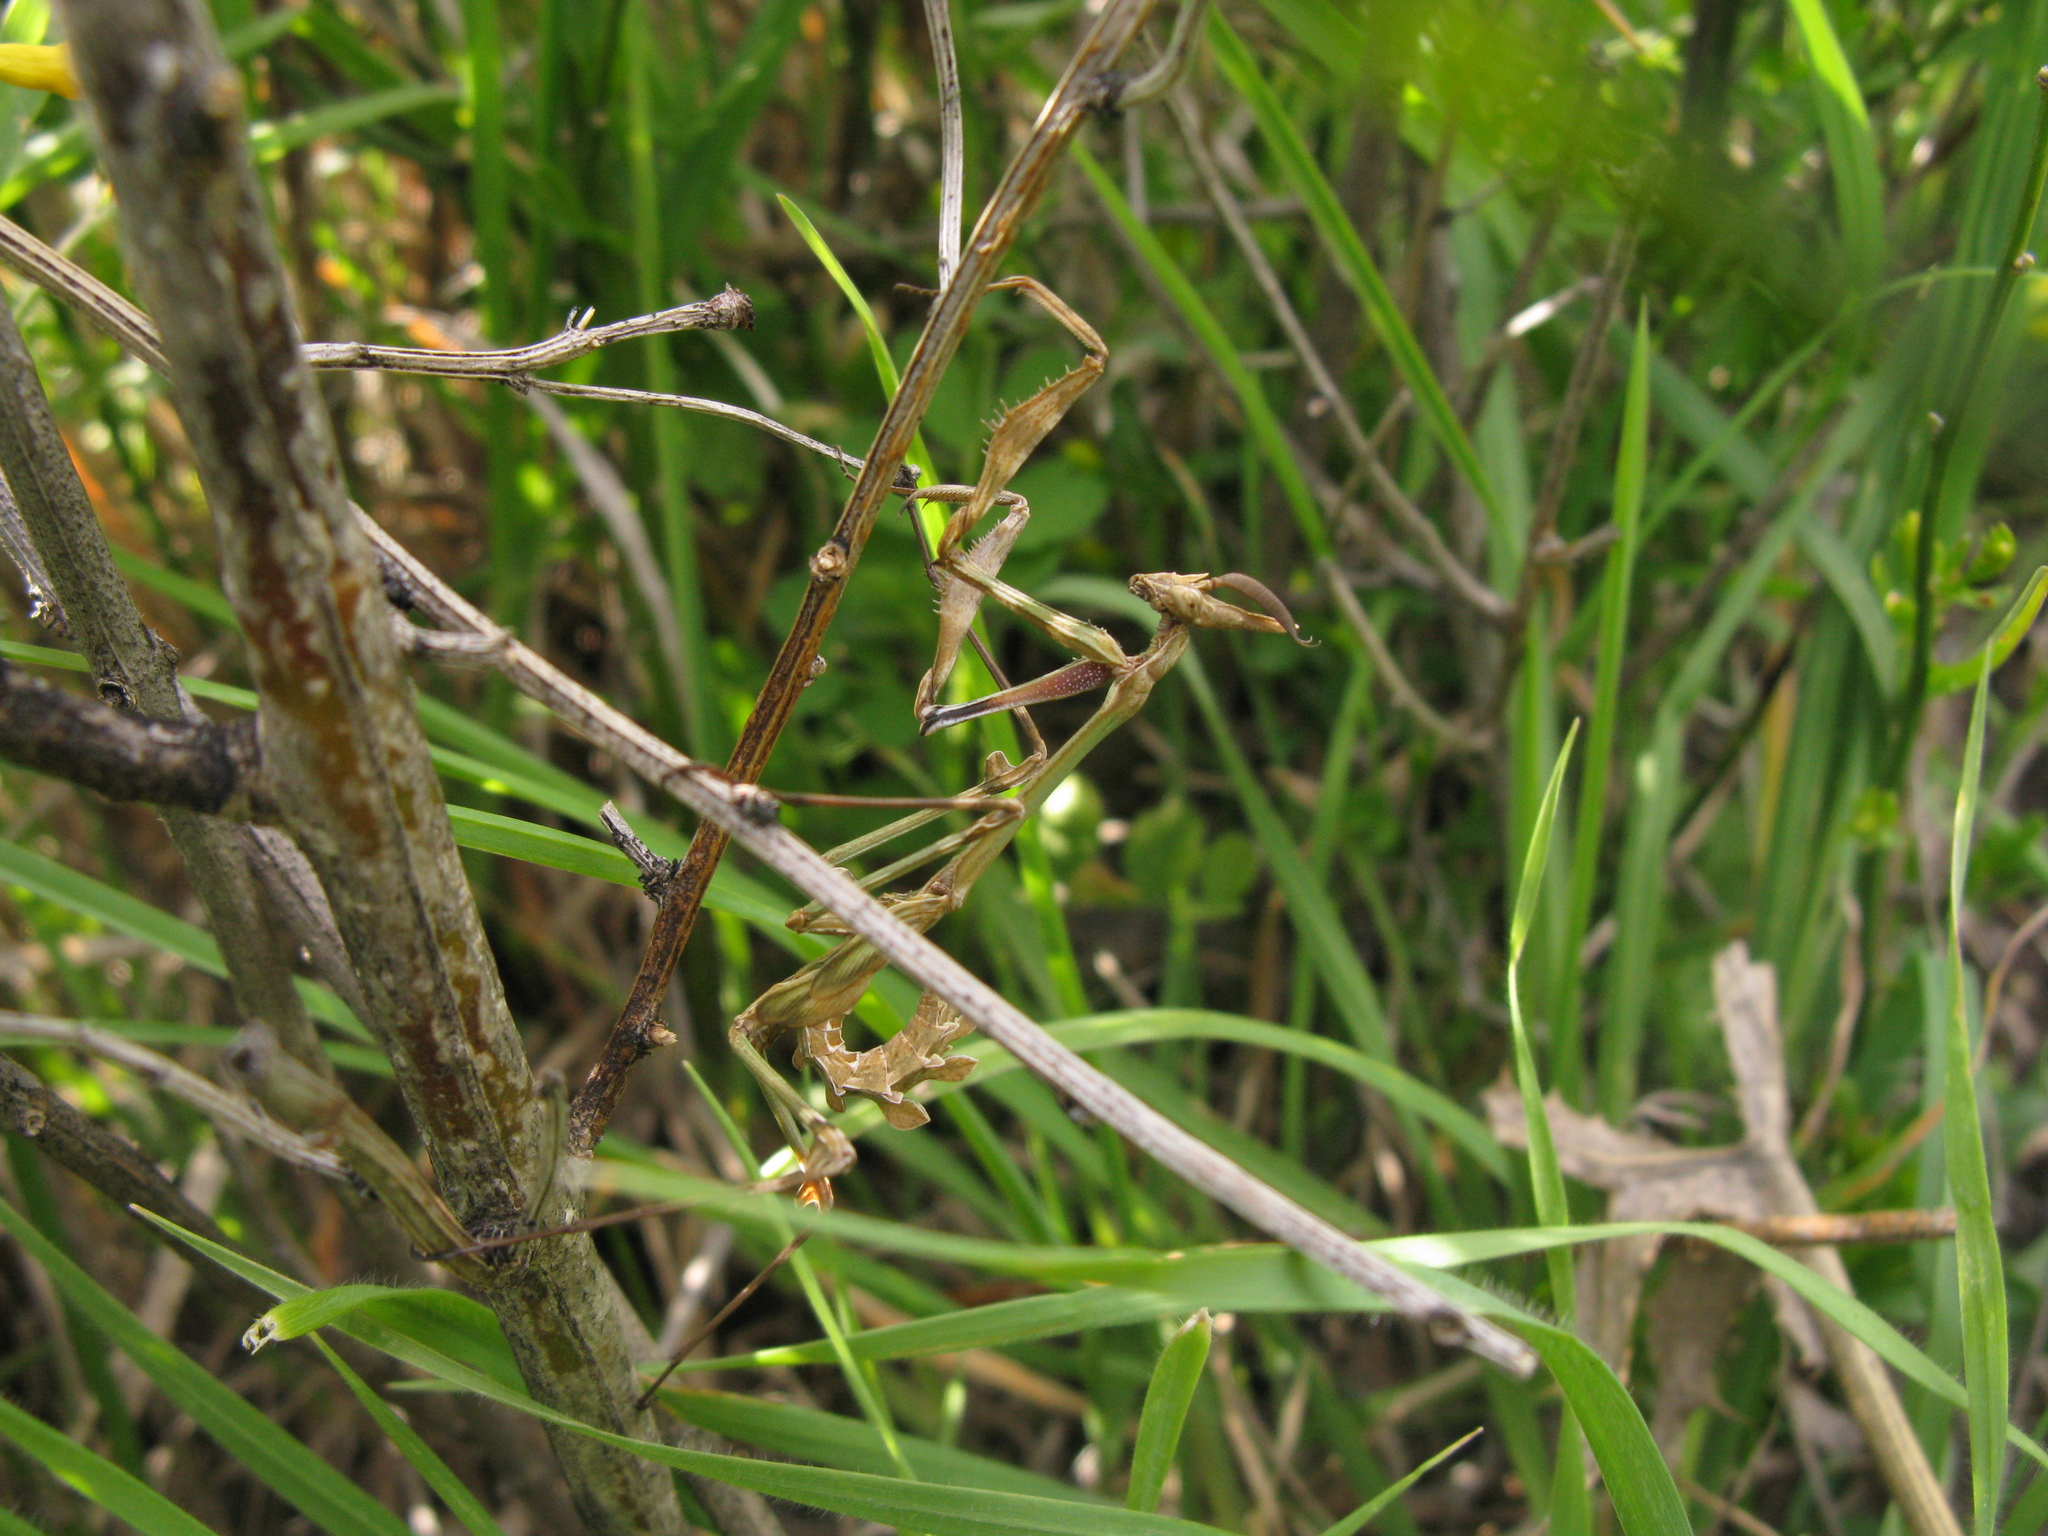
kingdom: Animalia
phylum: Arthropoda
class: Insecta
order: Mantodea
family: Empusidae
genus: Empusa
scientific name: Empusa fasciata
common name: Devil's mare
